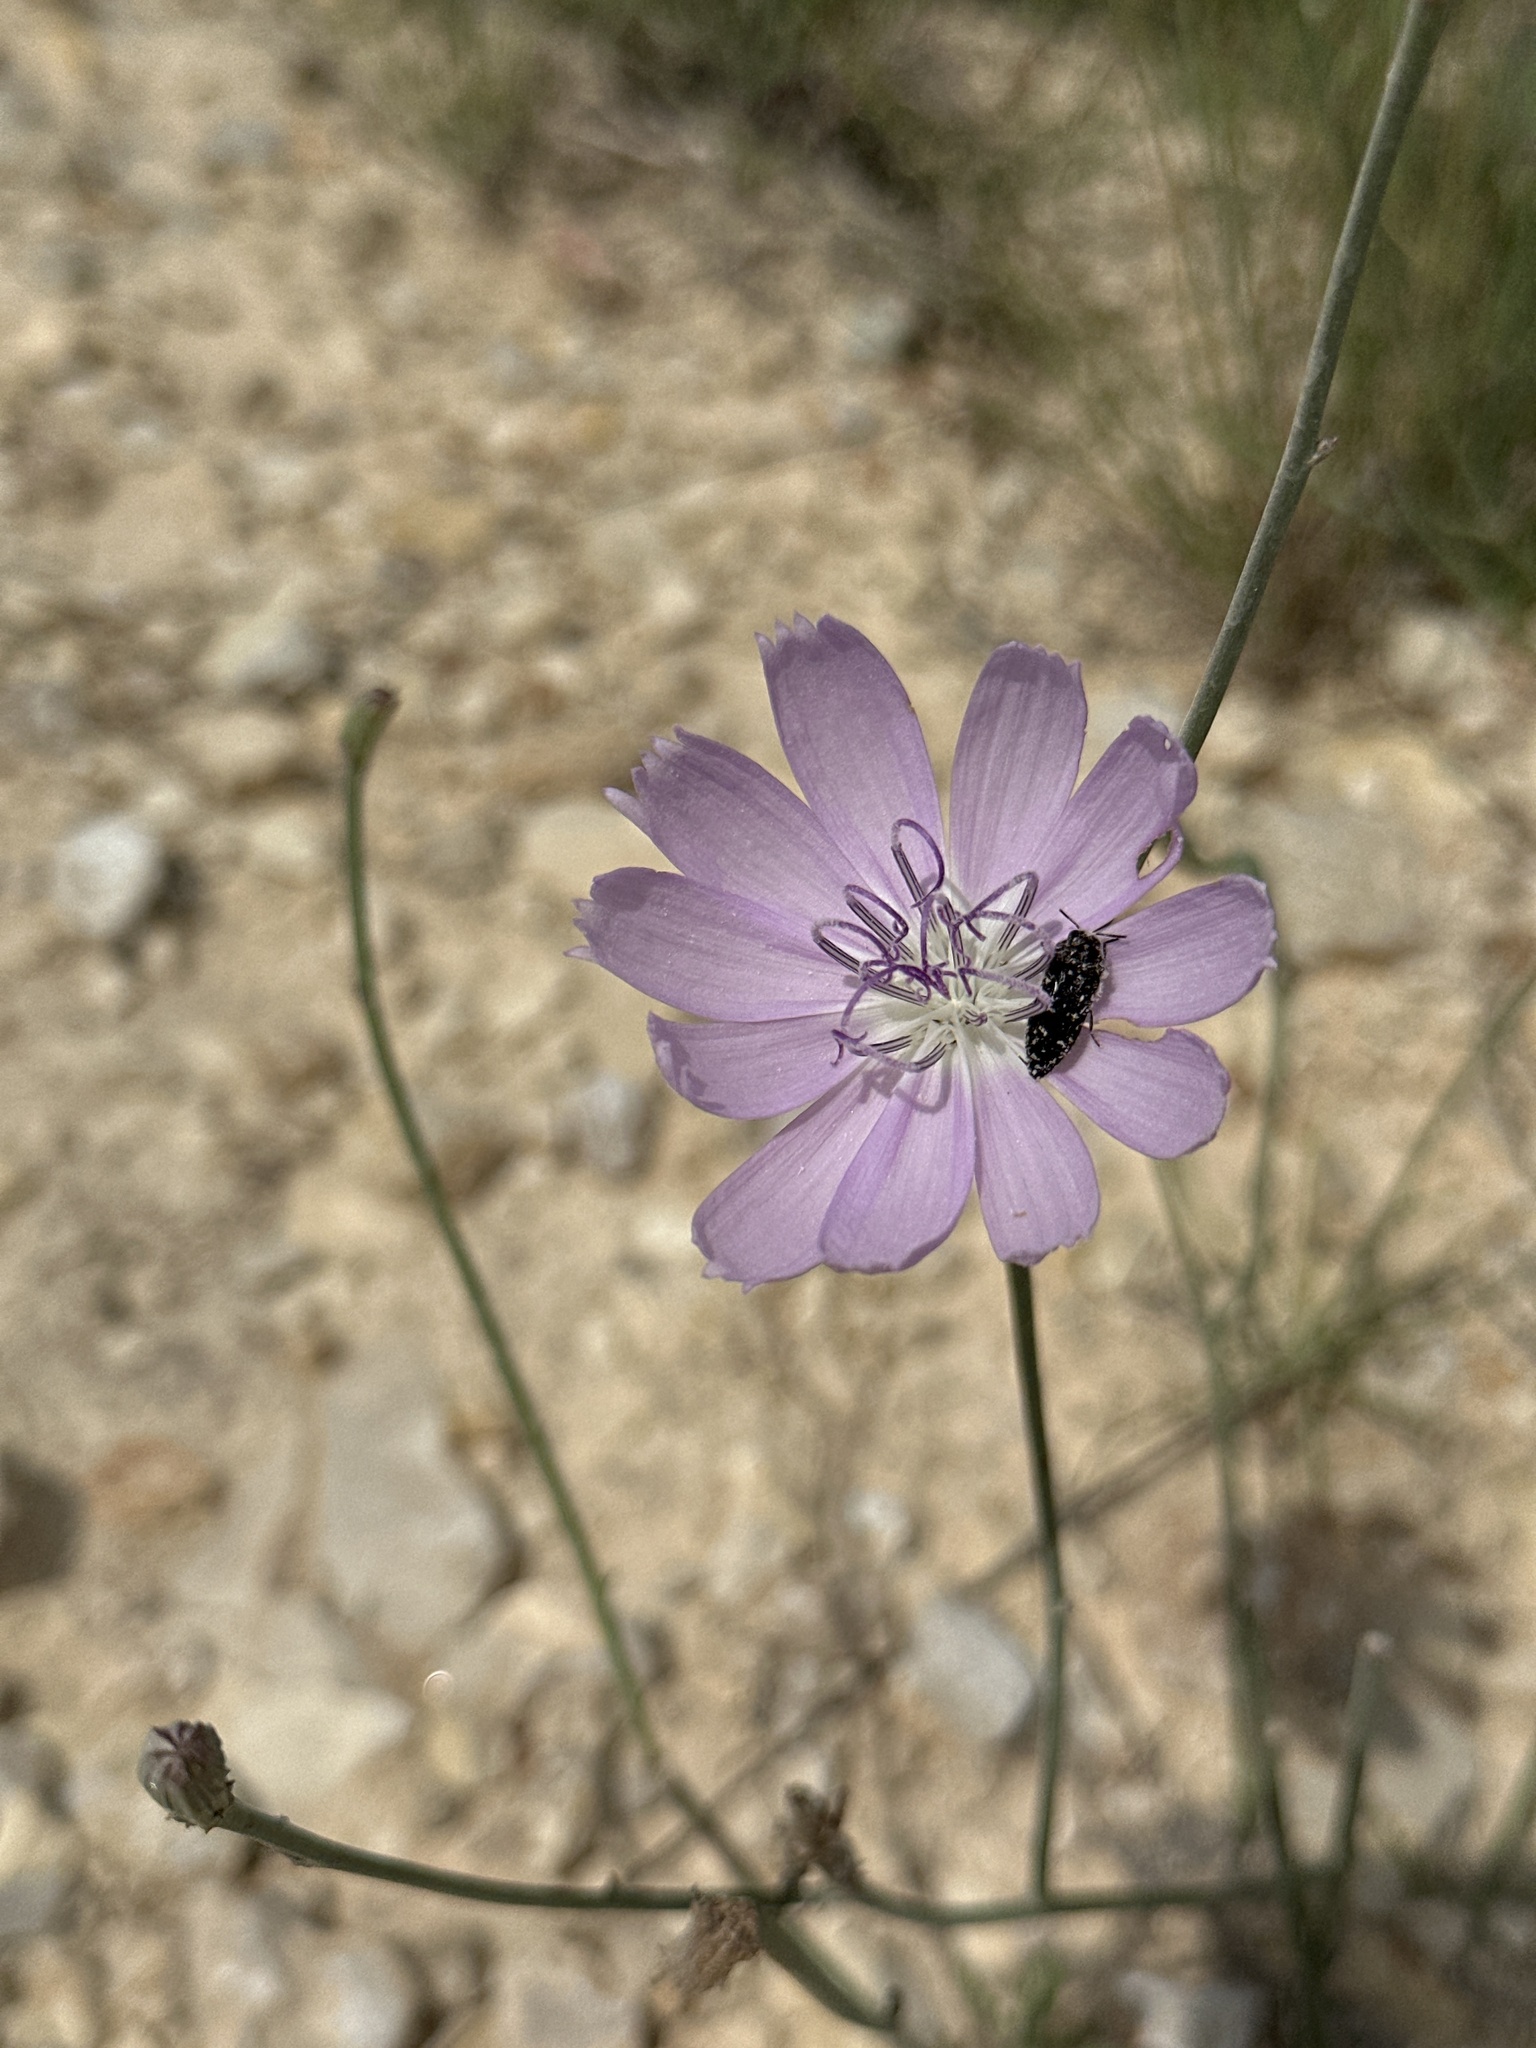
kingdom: Plantae
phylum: Tracheophyta
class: Magnoliopsida
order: Asterales
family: Asteraceae
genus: Lygodesmia
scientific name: Lygodesmia texana
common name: Texas skeleton-plant
